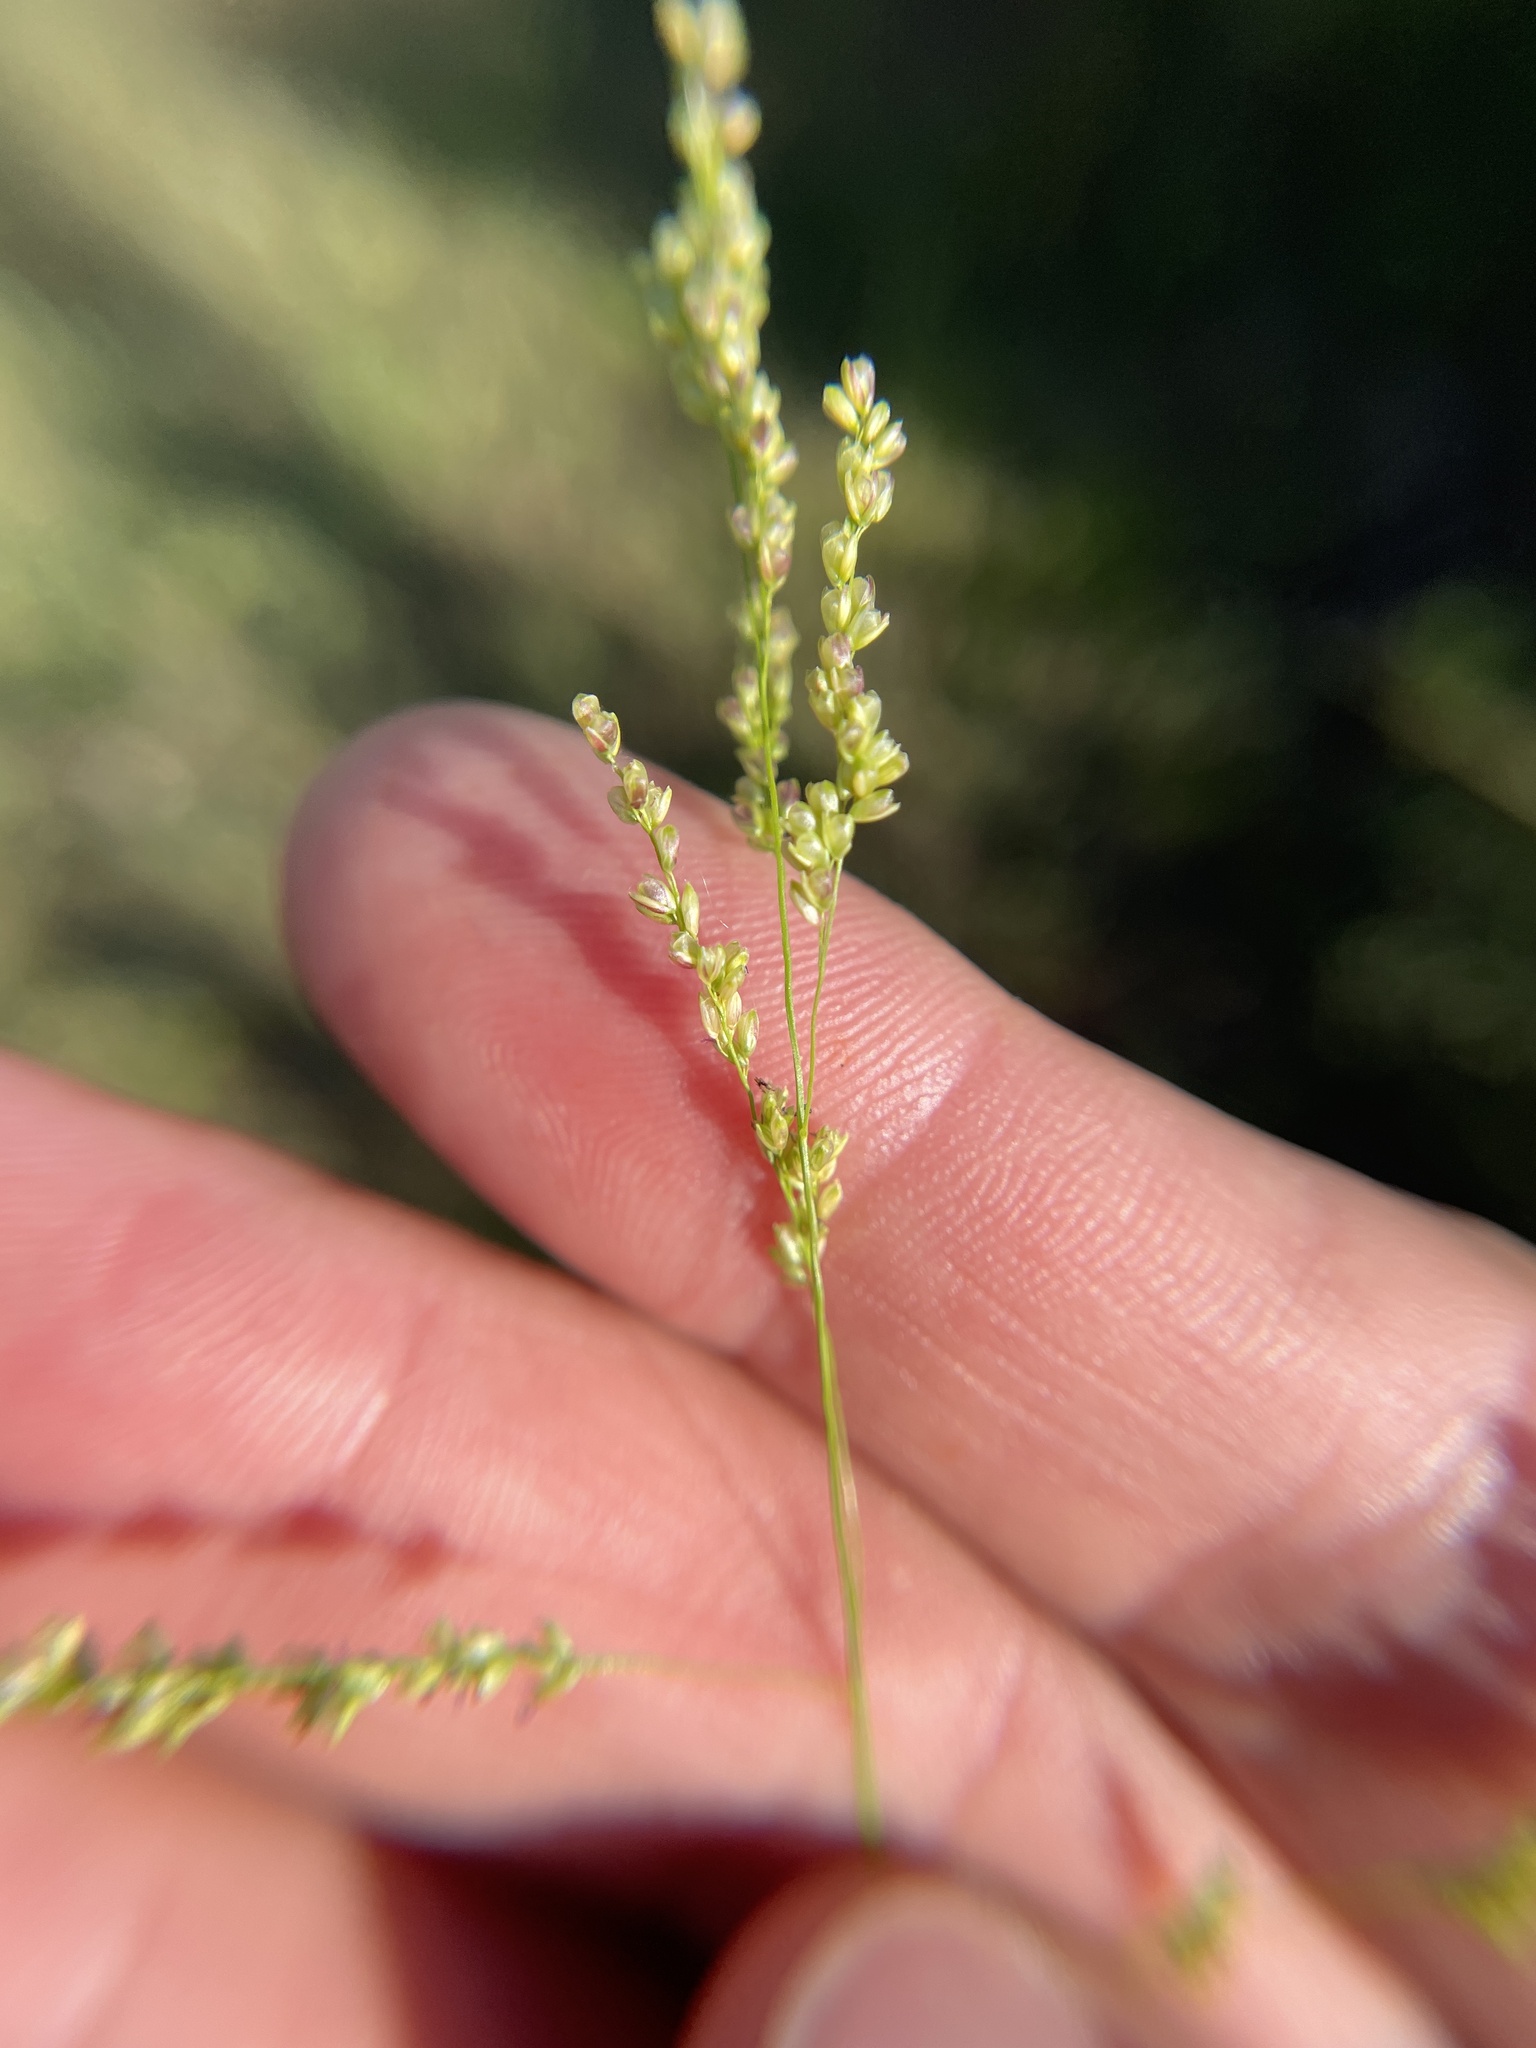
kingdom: Plantae
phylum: Tracheophyta
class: Liliopsida
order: Poales
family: Poaceae
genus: Steinchisma
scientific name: Steinchisma hians
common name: Gaping panic grass
